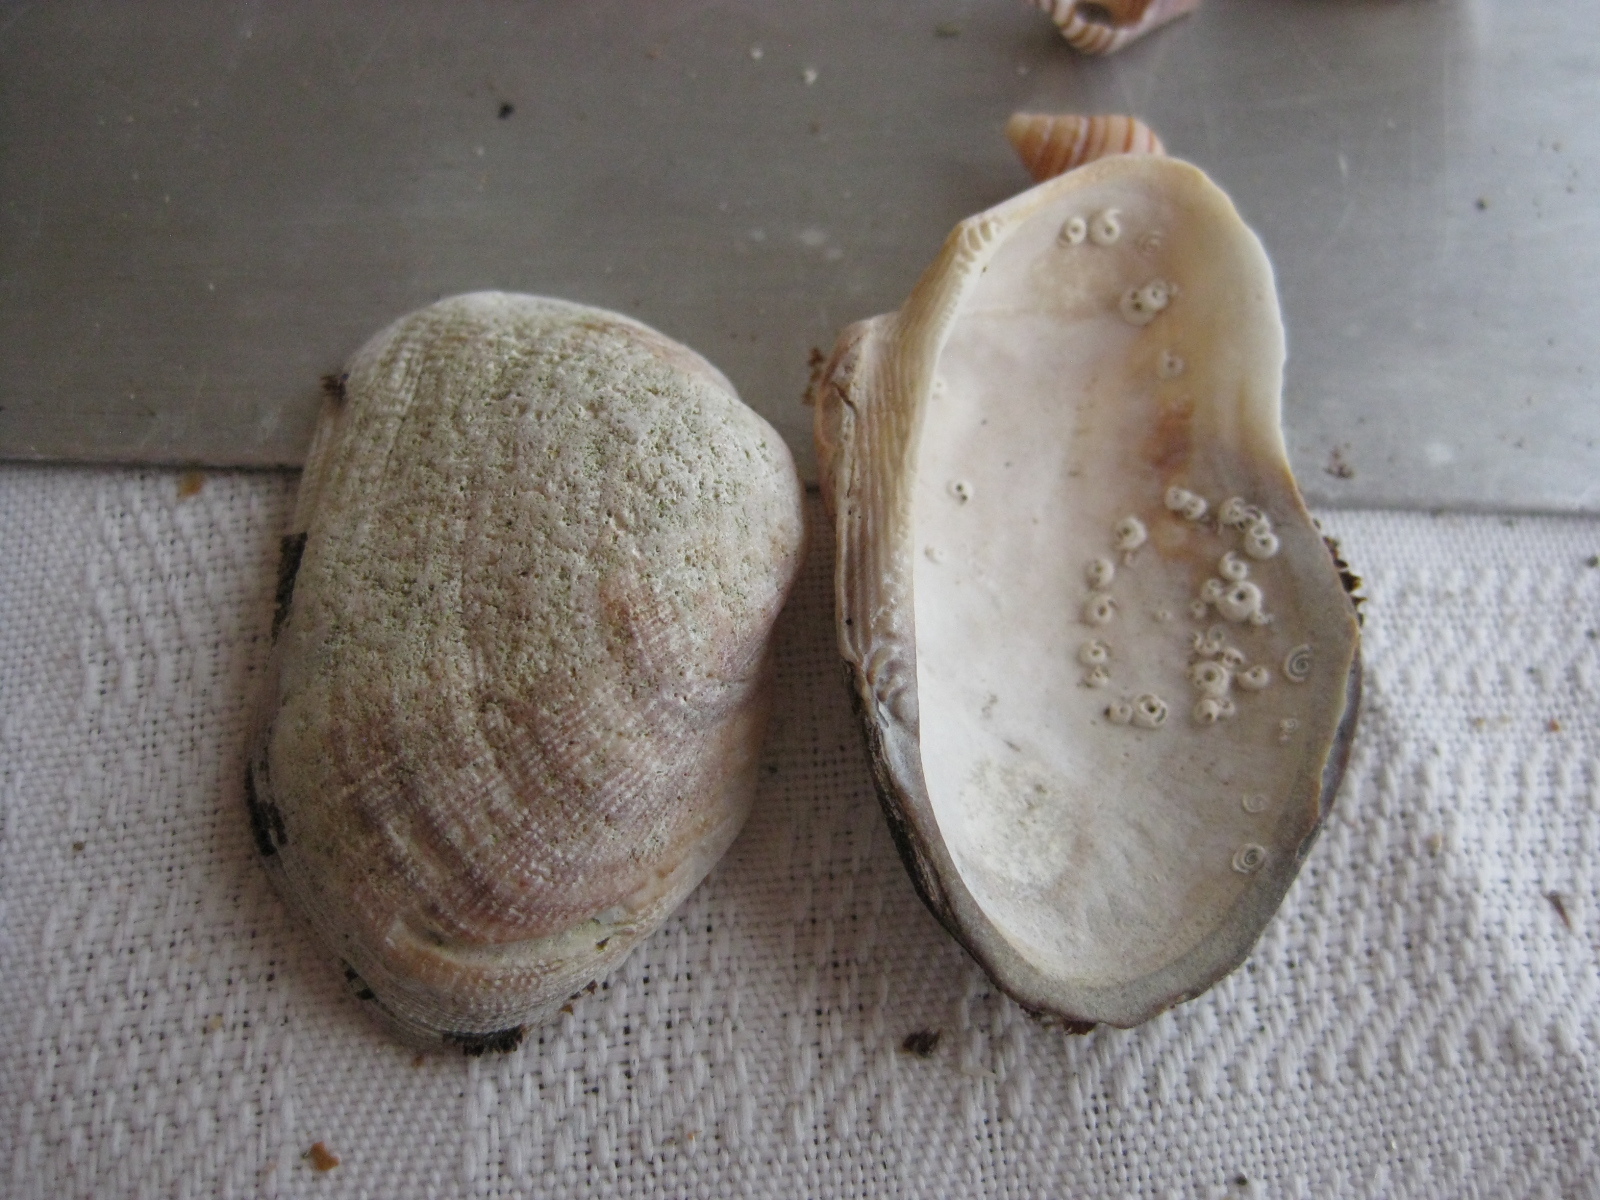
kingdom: Animalia
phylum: Mollusca
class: Bivalvia
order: Arcida
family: Arcidae
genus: Barbatia
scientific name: Barbatia novaezealandiae
